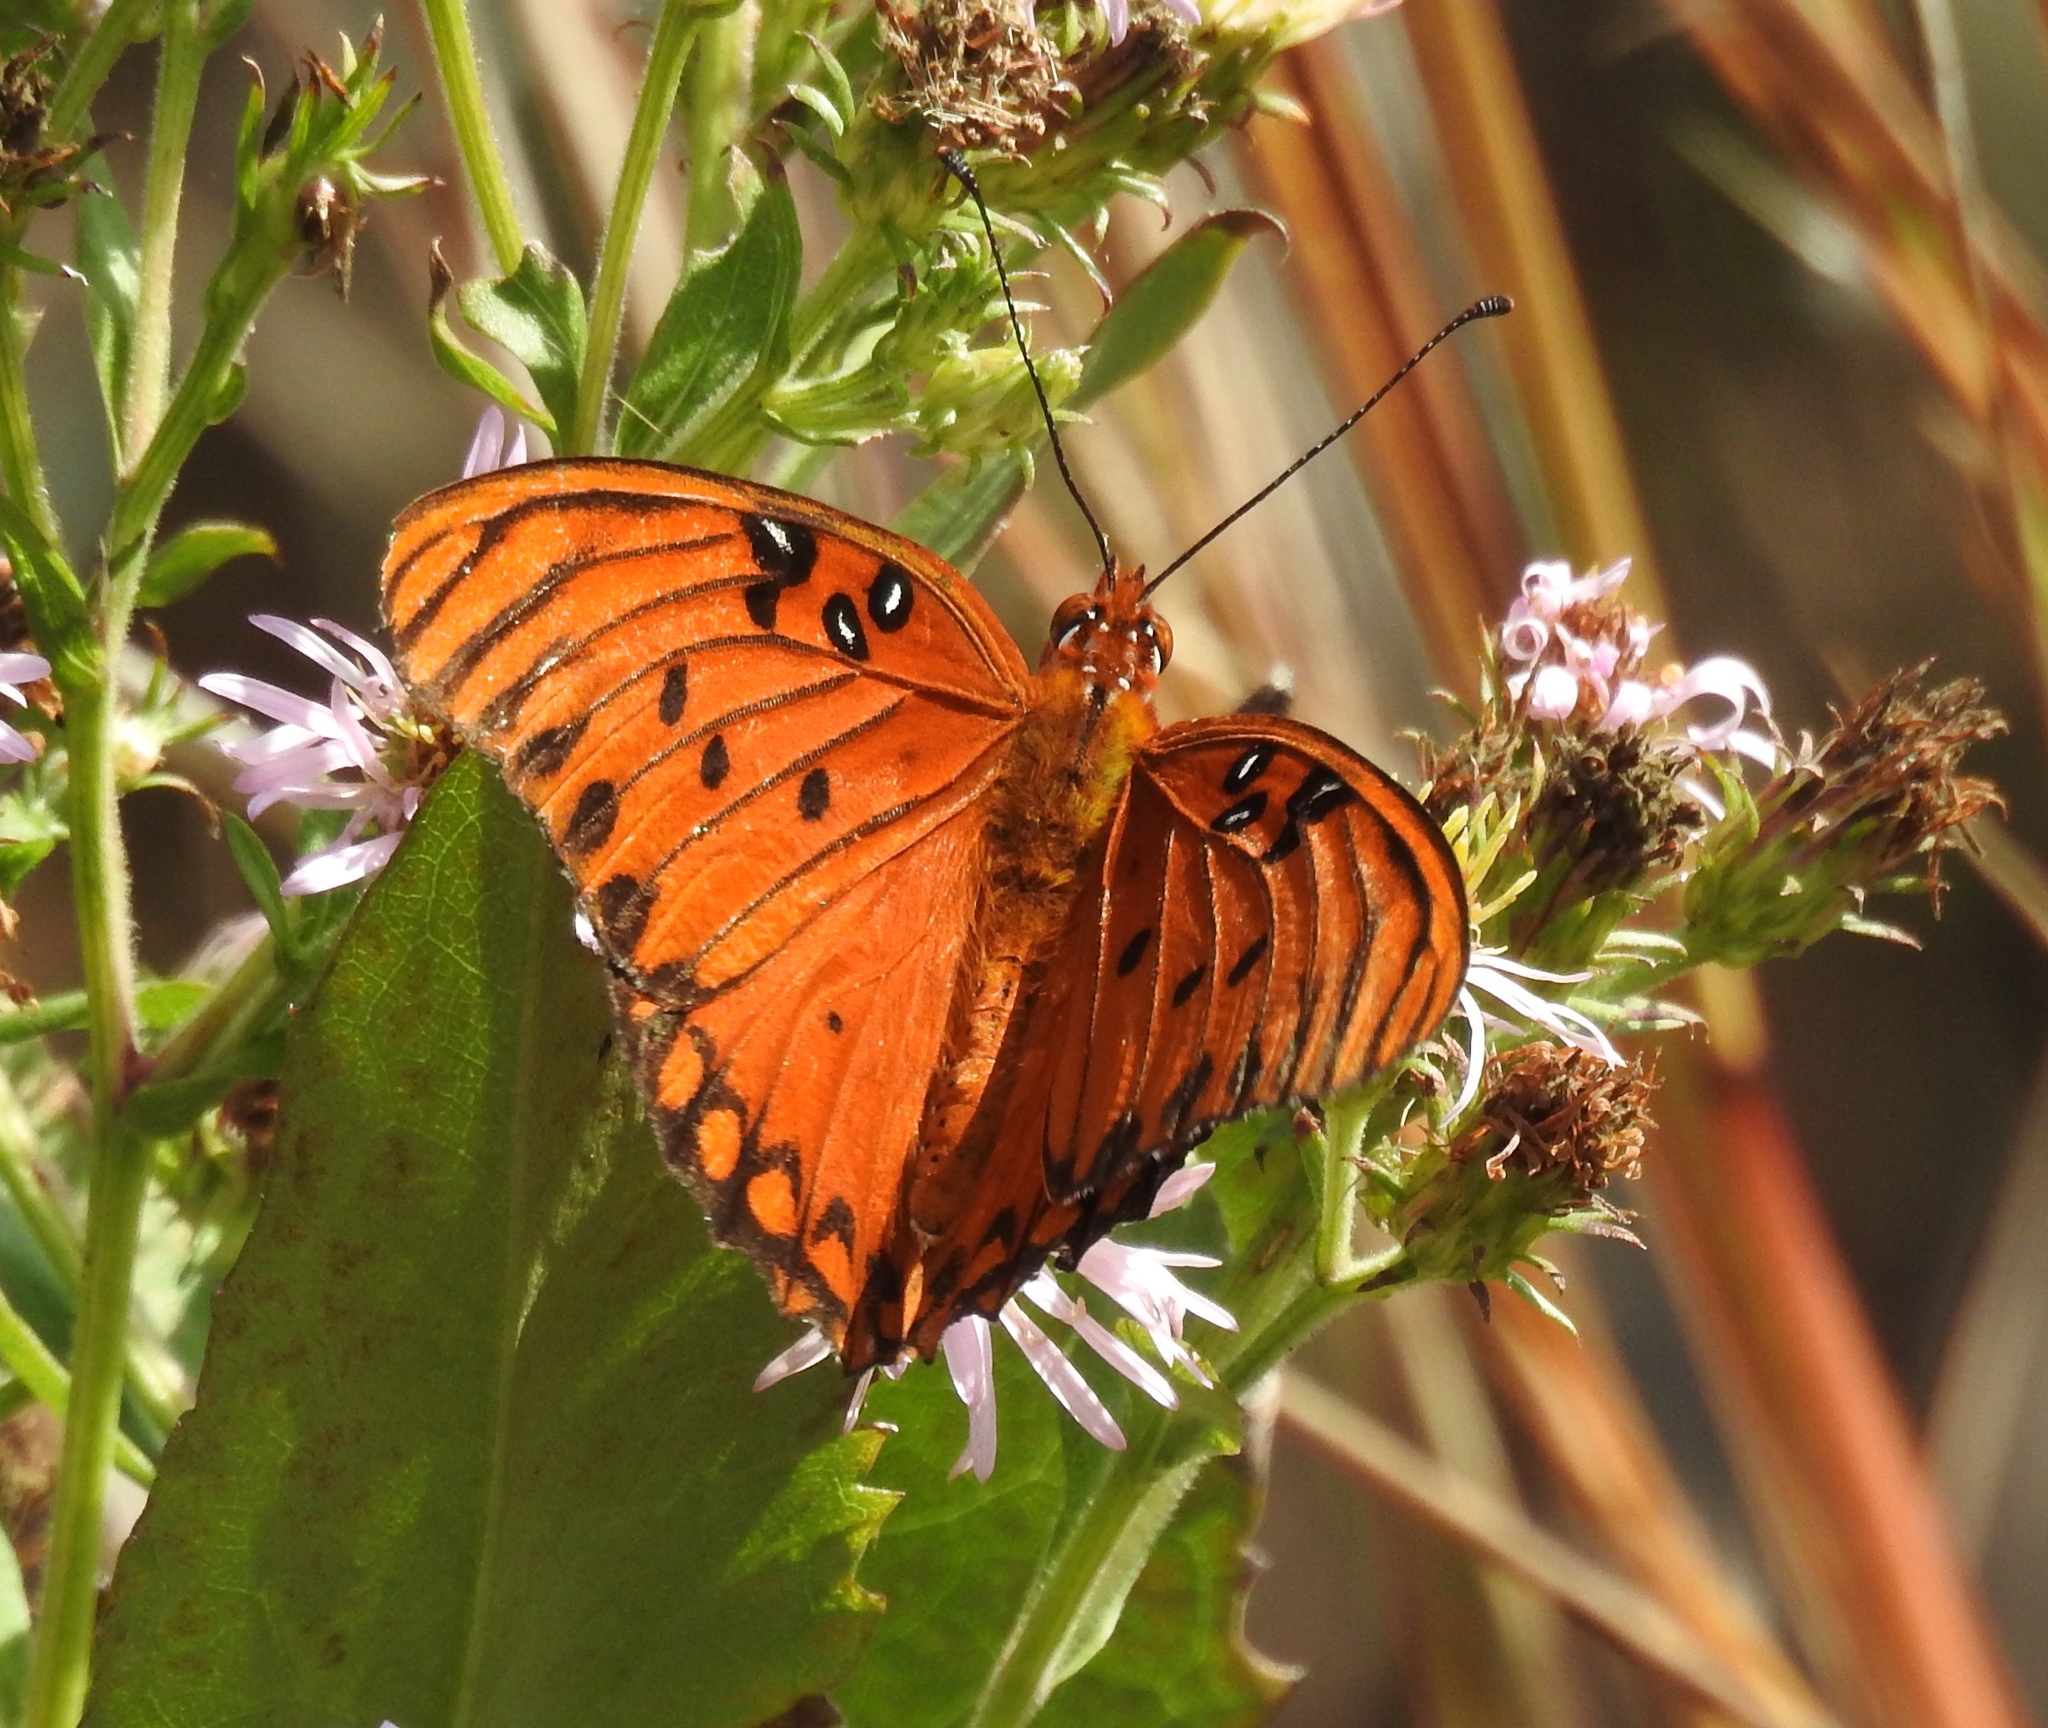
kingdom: Animalia
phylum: Arthropoda
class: Insecta
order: Lepidoptera
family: Nymphalidae
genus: Dione
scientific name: Dione vanillae
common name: Gulf fritillary
